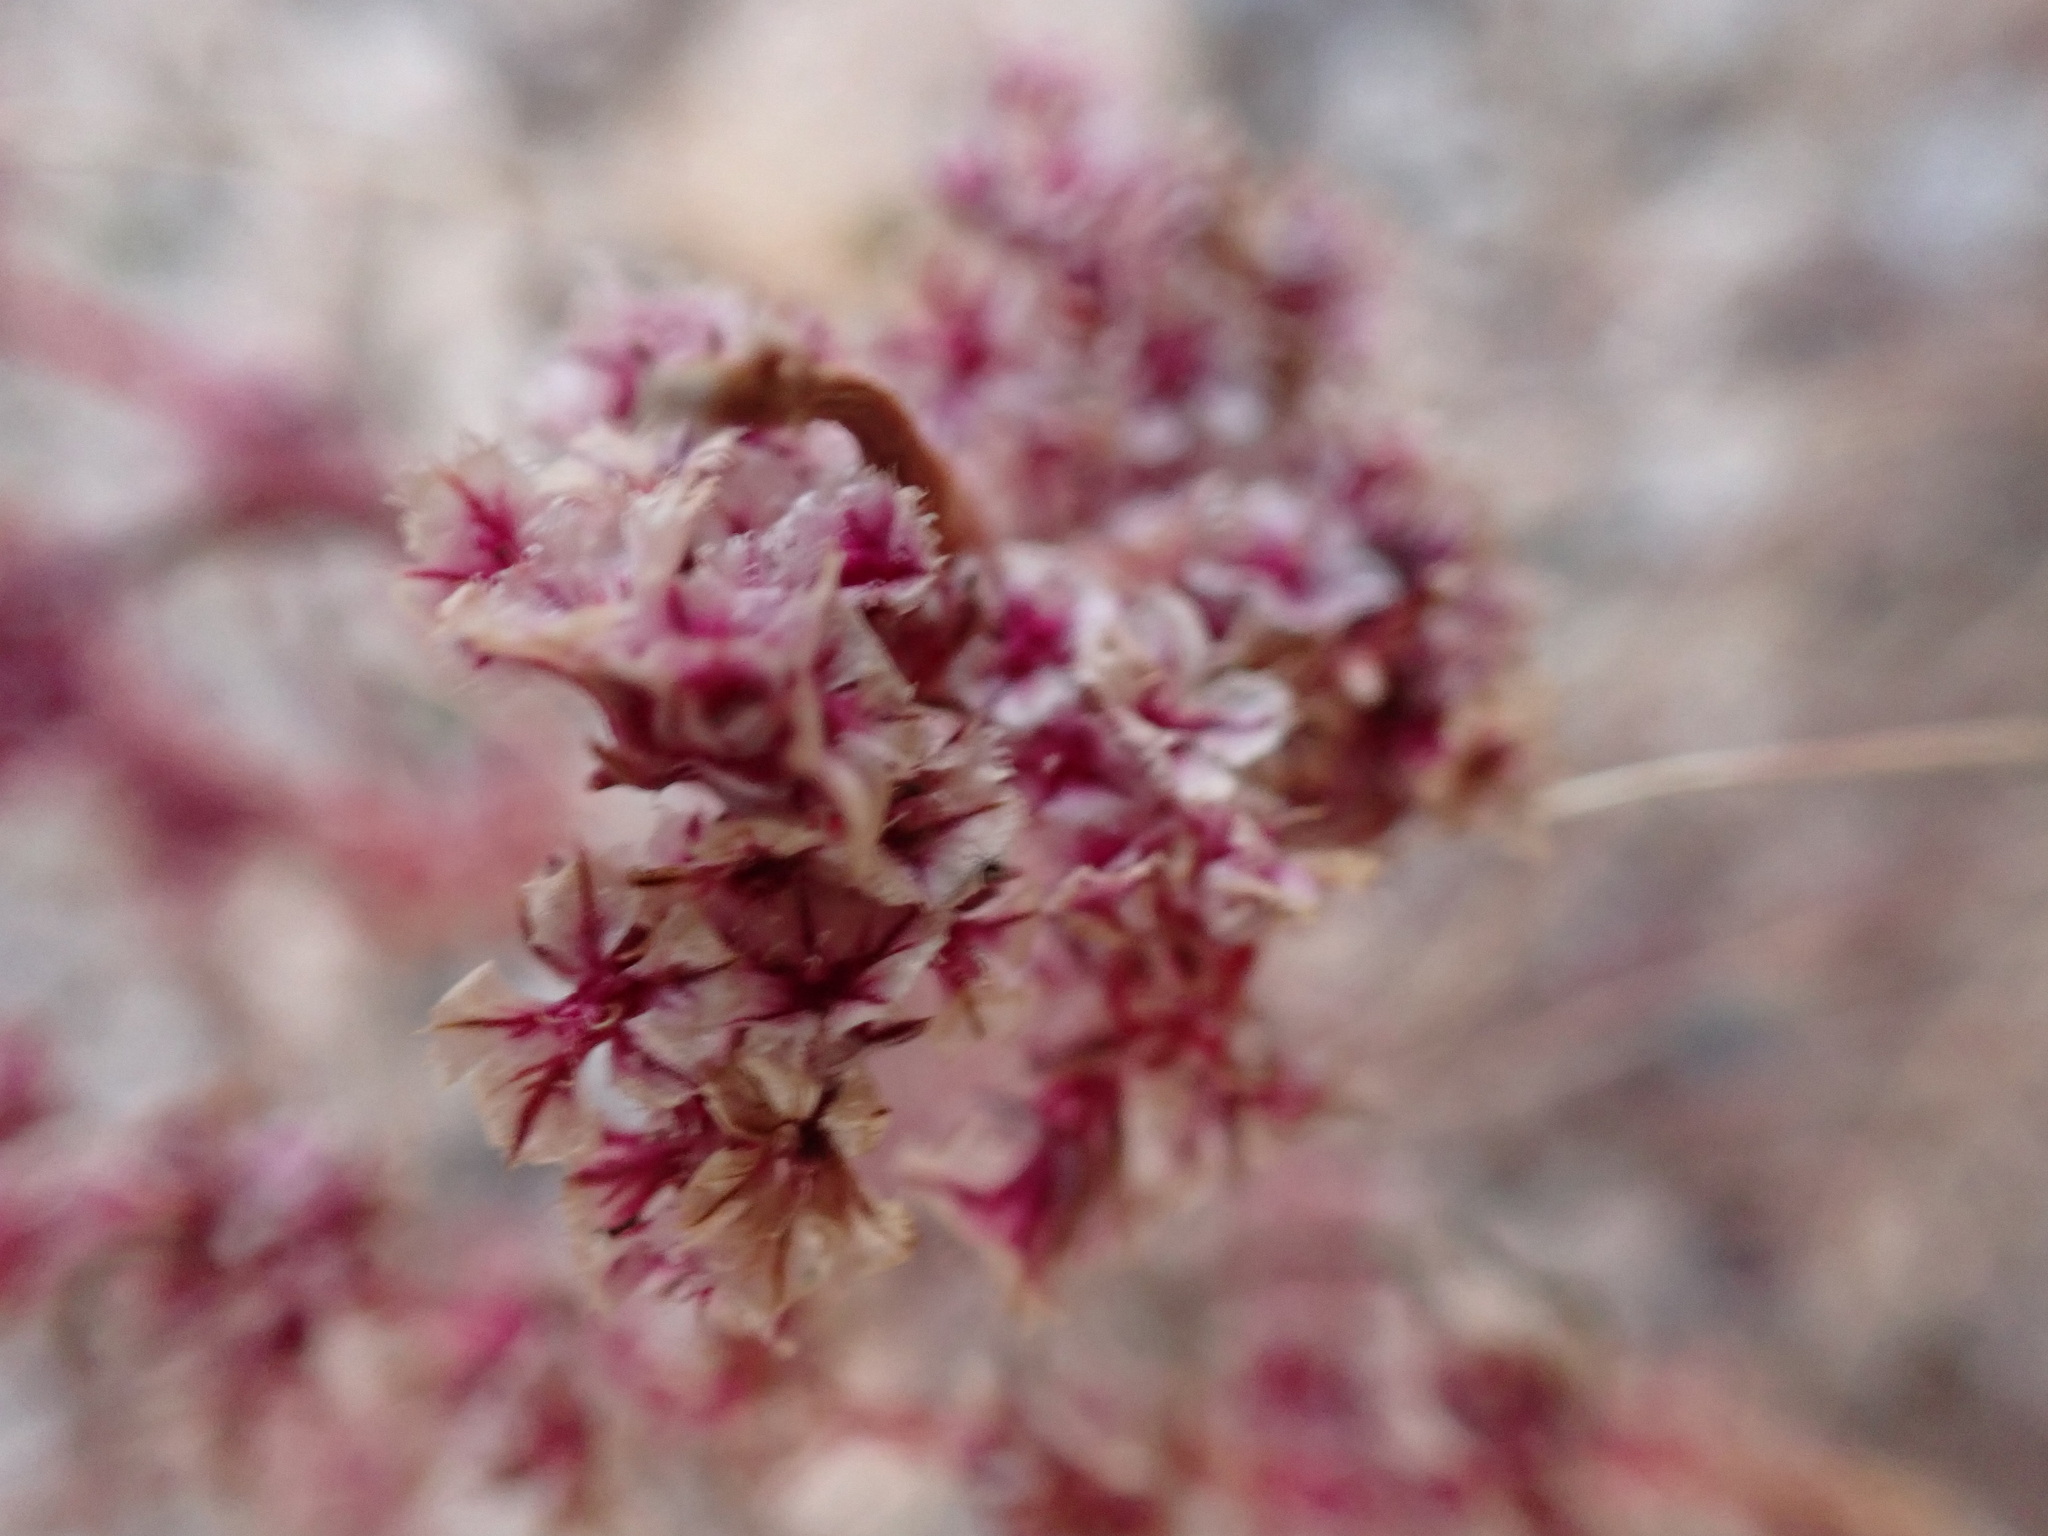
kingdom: Plantae
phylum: Tracheophyta
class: Magnoliopsida
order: Caryophyllales
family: Amaranthaceae
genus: Amaranthus
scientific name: Amaranthus fimbriatus
